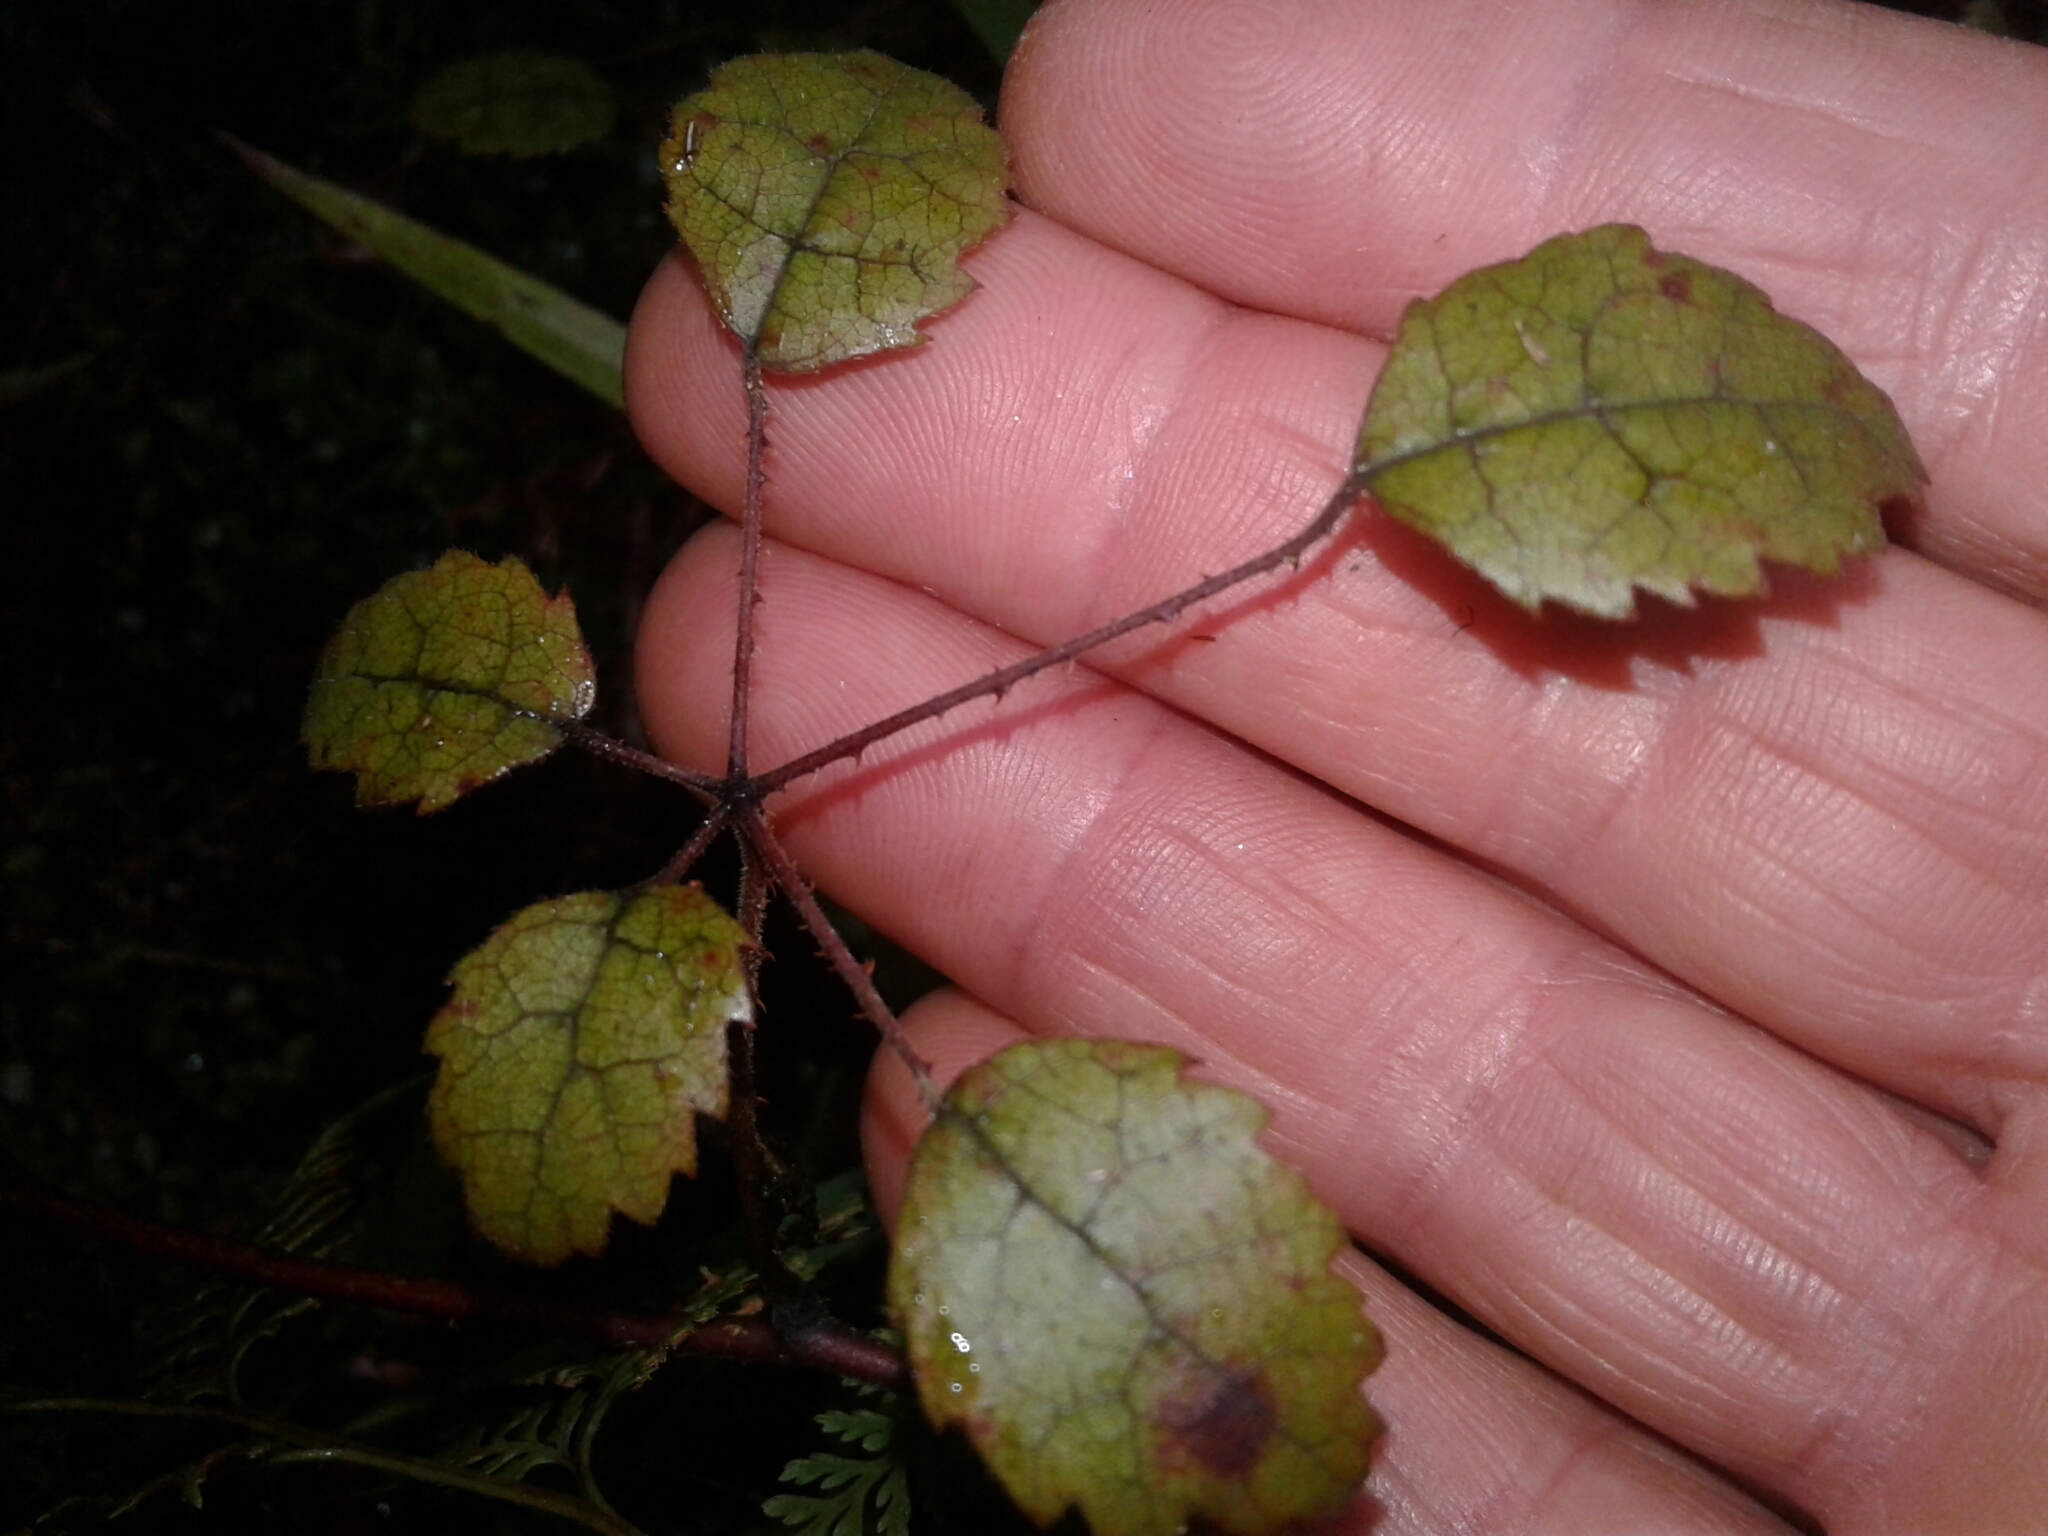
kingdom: Plantae
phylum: Tracheophyta
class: Magnoliopsida
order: Rosales
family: Rosaceae
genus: Rubus
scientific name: Rubus australis
